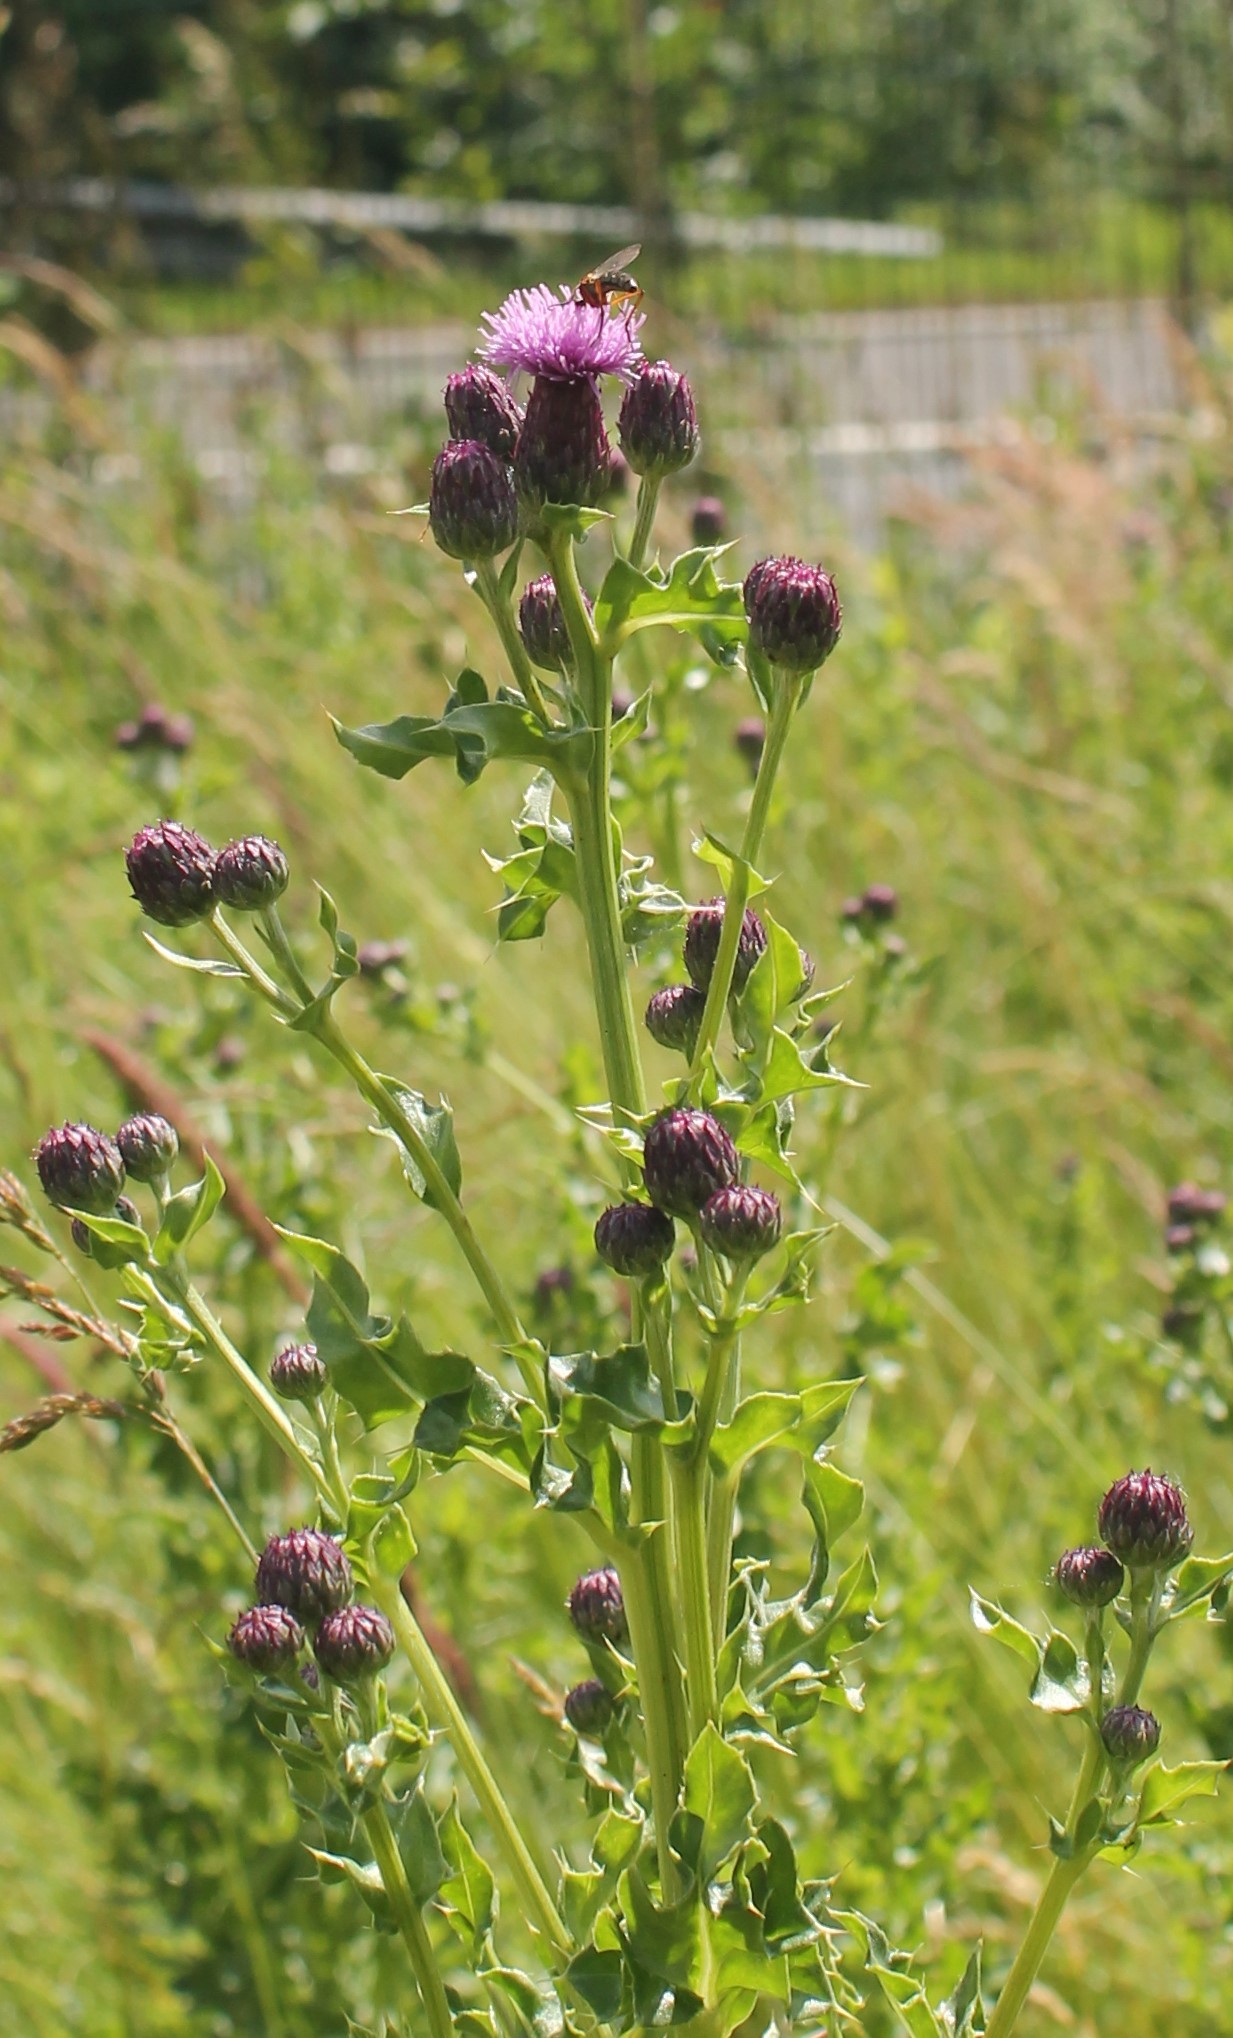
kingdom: Plantae
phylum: Tracheophyta
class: Magnoliopsida
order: Asterales
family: Asteraceae
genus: Cirsium
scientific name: Cirsium arvense
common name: Creeping thistle
